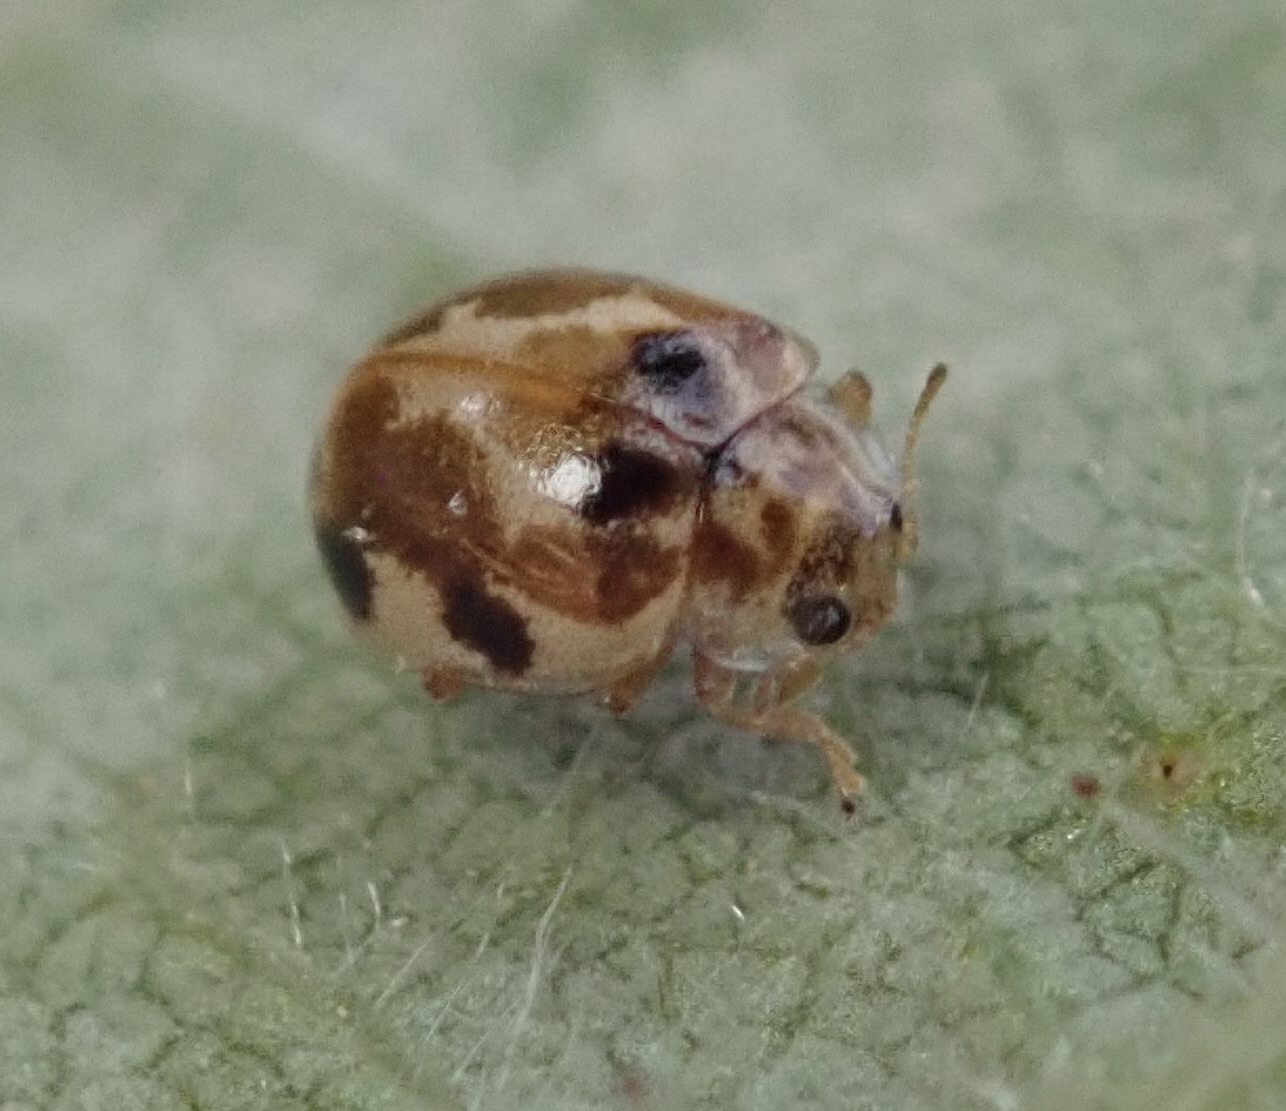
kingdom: Animalia
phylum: Arthropoda
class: Insecta
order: Coleoptera
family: Coccinellidae
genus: Psyllobora
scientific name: Psyllobora vigintimaculata
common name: Ladybird beetle
